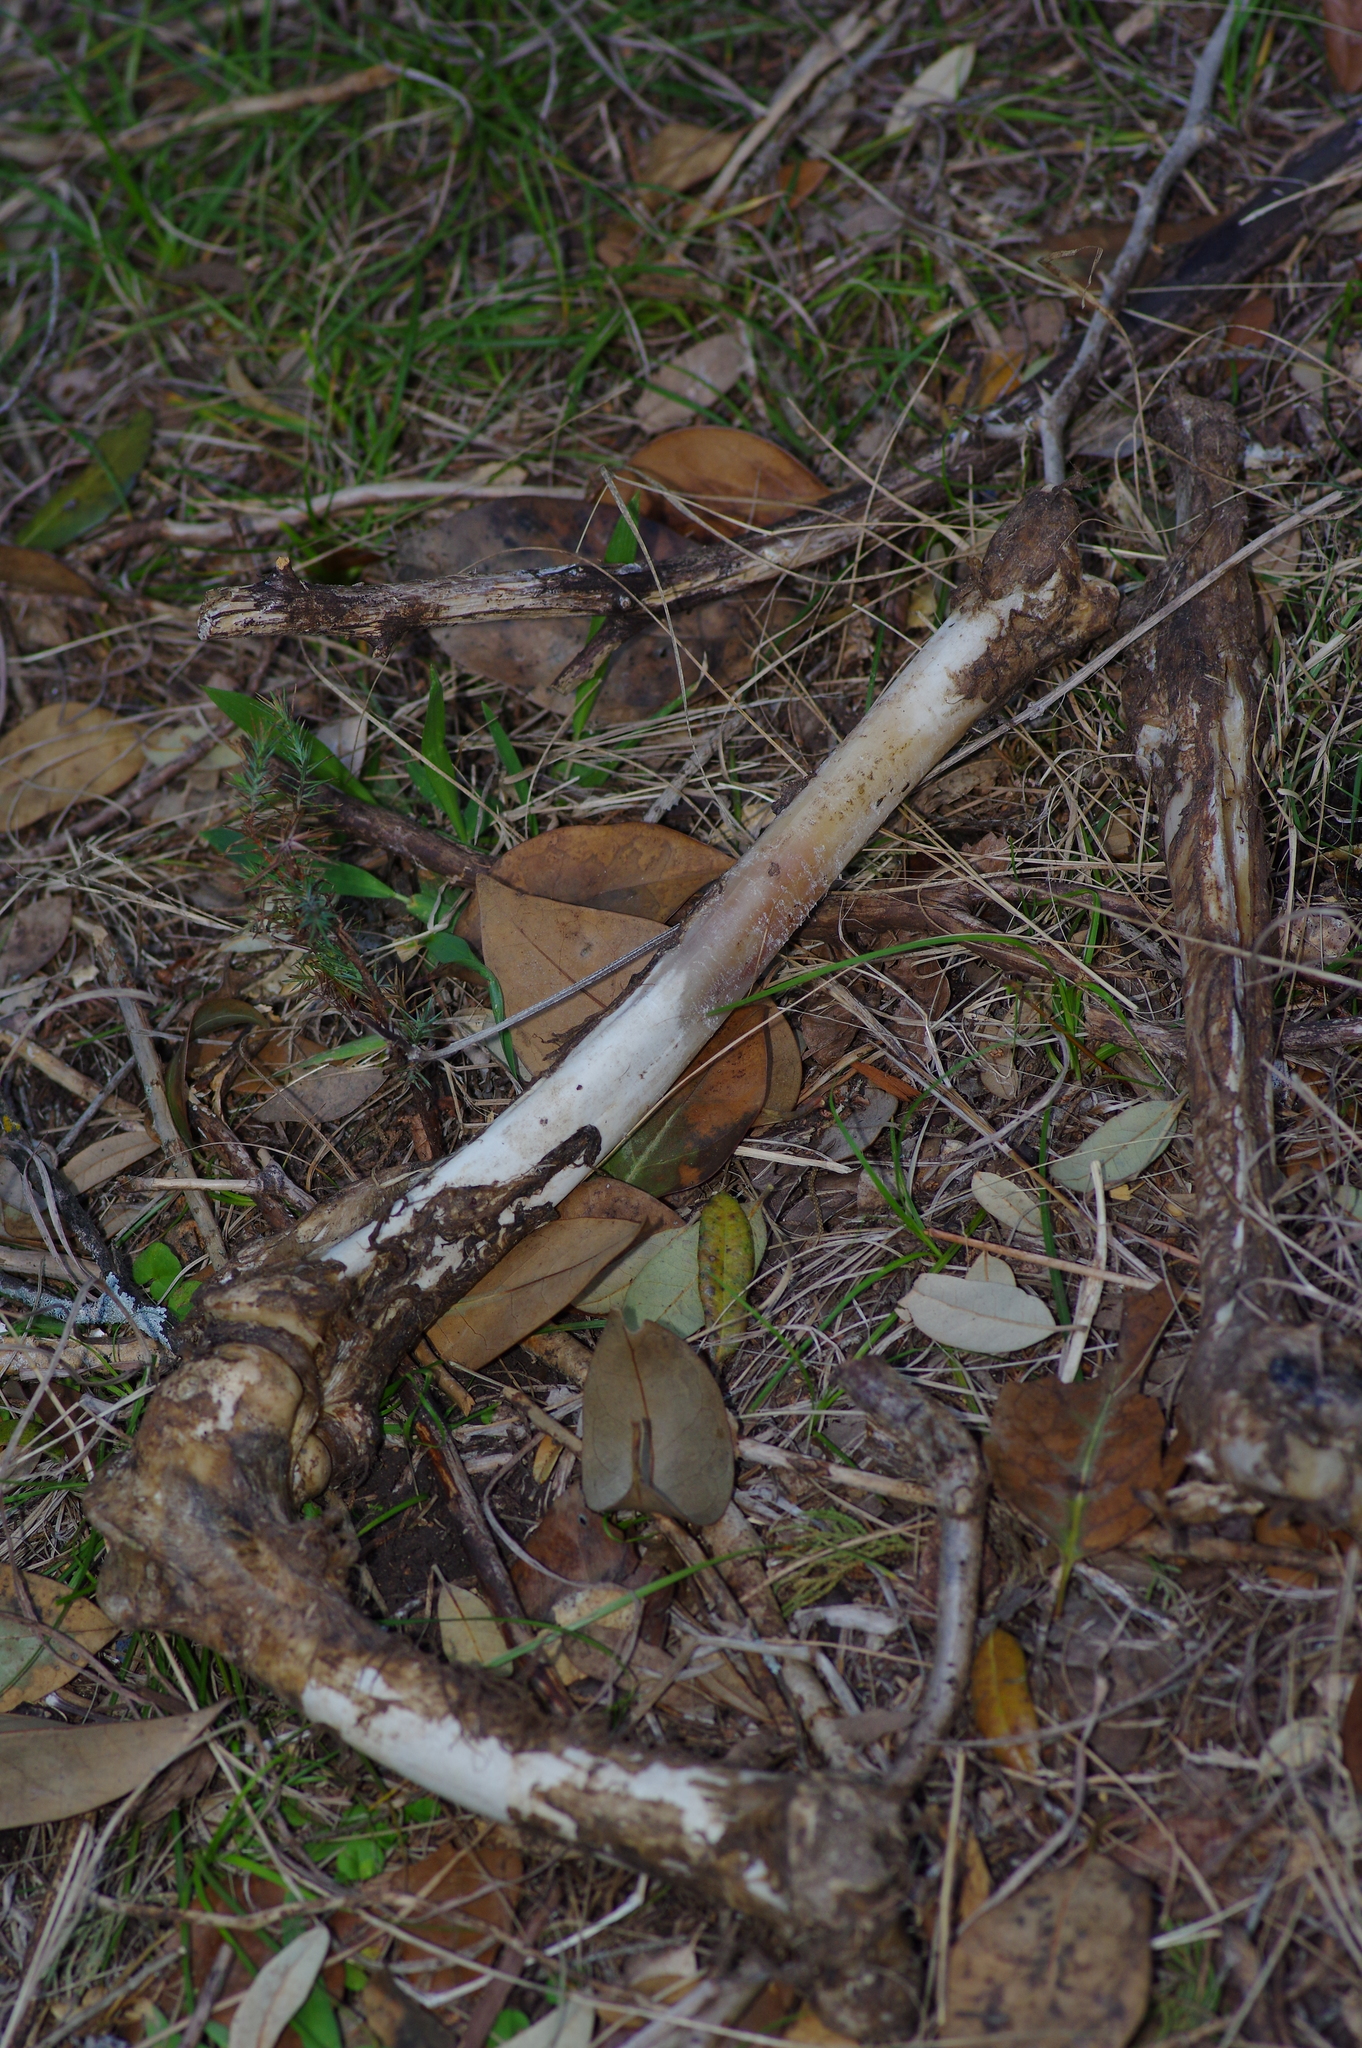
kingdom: Animalia
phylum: Chordata
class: Mammalia
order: Artiodactyla
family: Cervidae
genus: Odocoileus
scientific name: Odocoileus virginianus
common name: White-tailed deer
